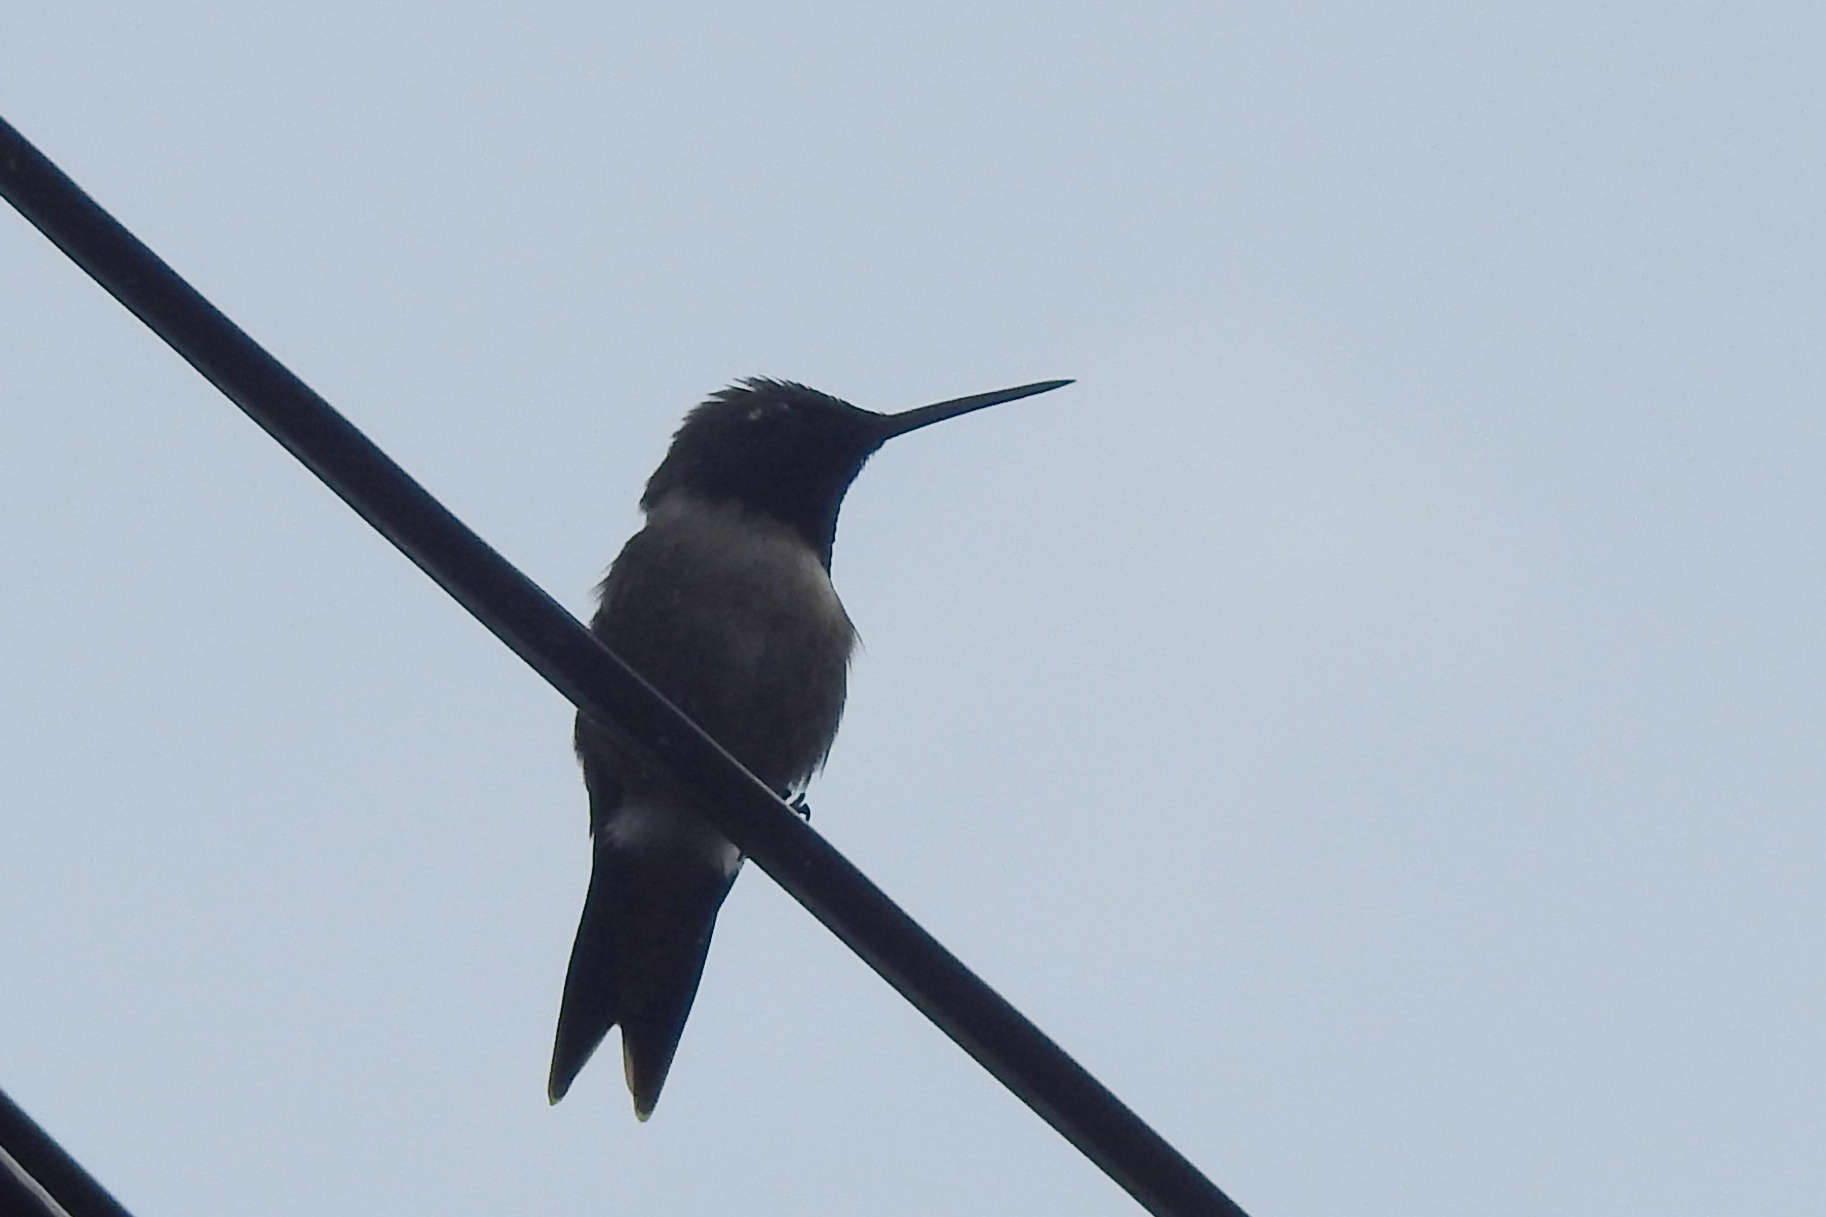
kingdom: Animalia
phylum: Chordata
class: Aves
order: Apodiformes
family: Trochilidae
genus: Archilochus
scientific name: Archilochus colubris
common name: Ruby-throated hummingbird
